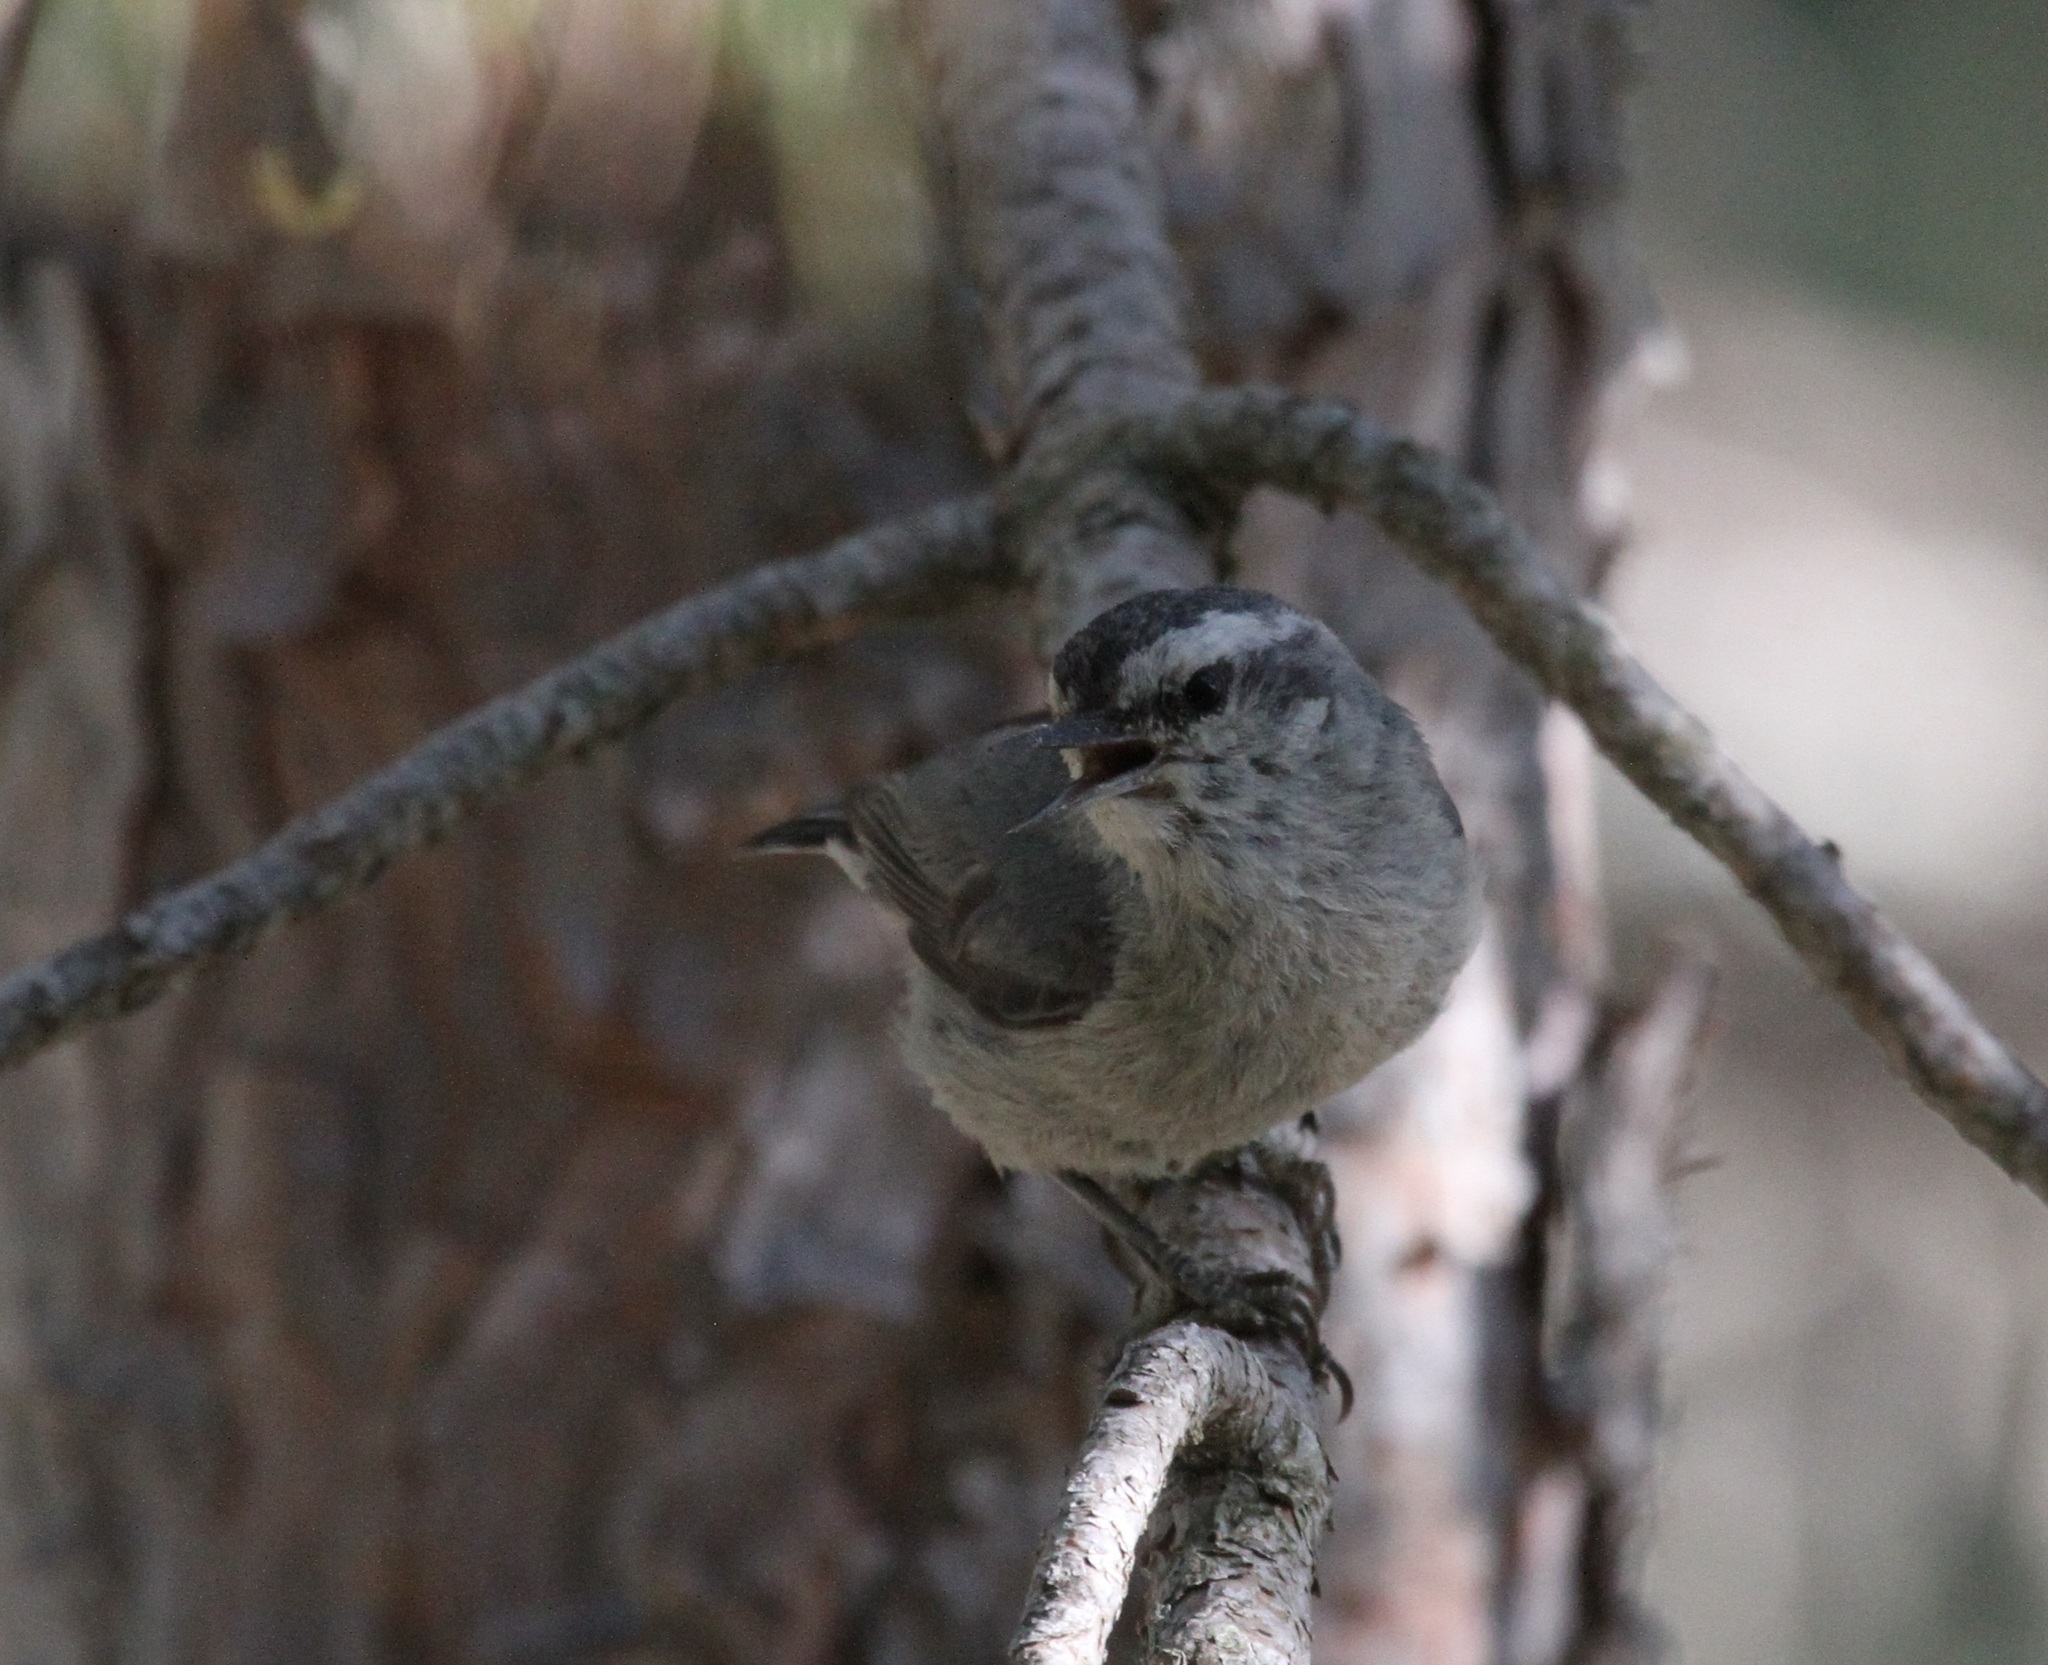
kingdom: Animalia
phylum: Chordata
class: Aves
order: Passeriformes
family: Sittidae
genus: Sitta
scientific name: Sitta whiteheadi
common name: Corsican nuthatch
